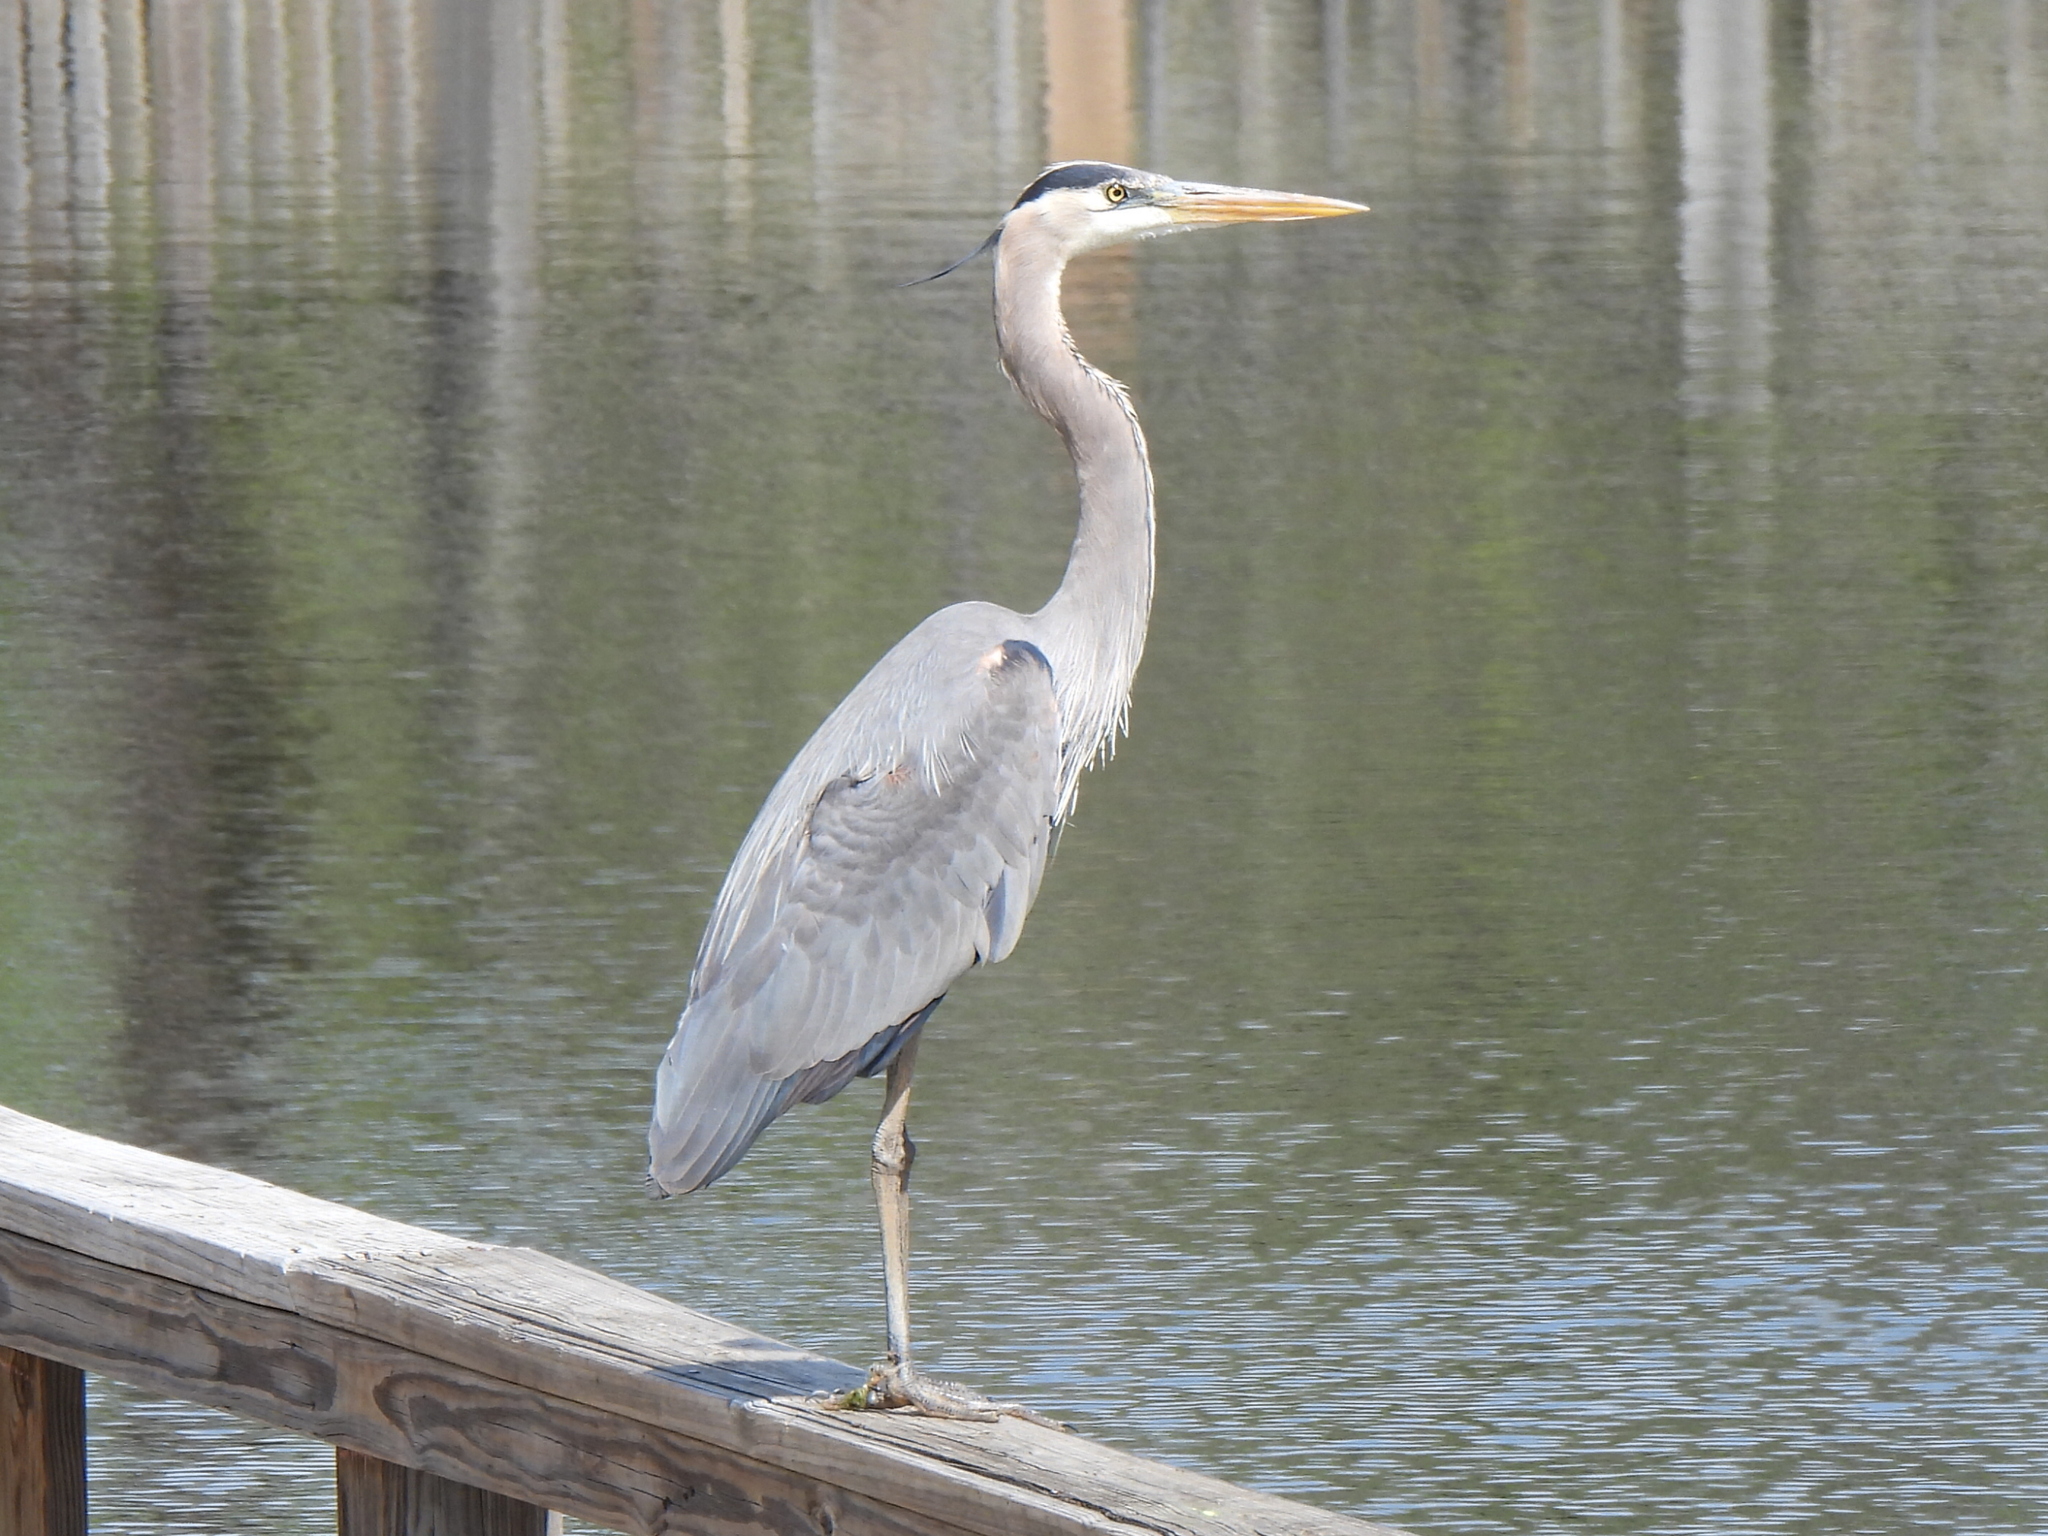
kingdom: Animalia
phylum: Chordata
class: Aves
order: Pelecaniformes
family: Ardeidae
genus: Ardea
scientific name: Ardea herodias
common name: Great blue heron
